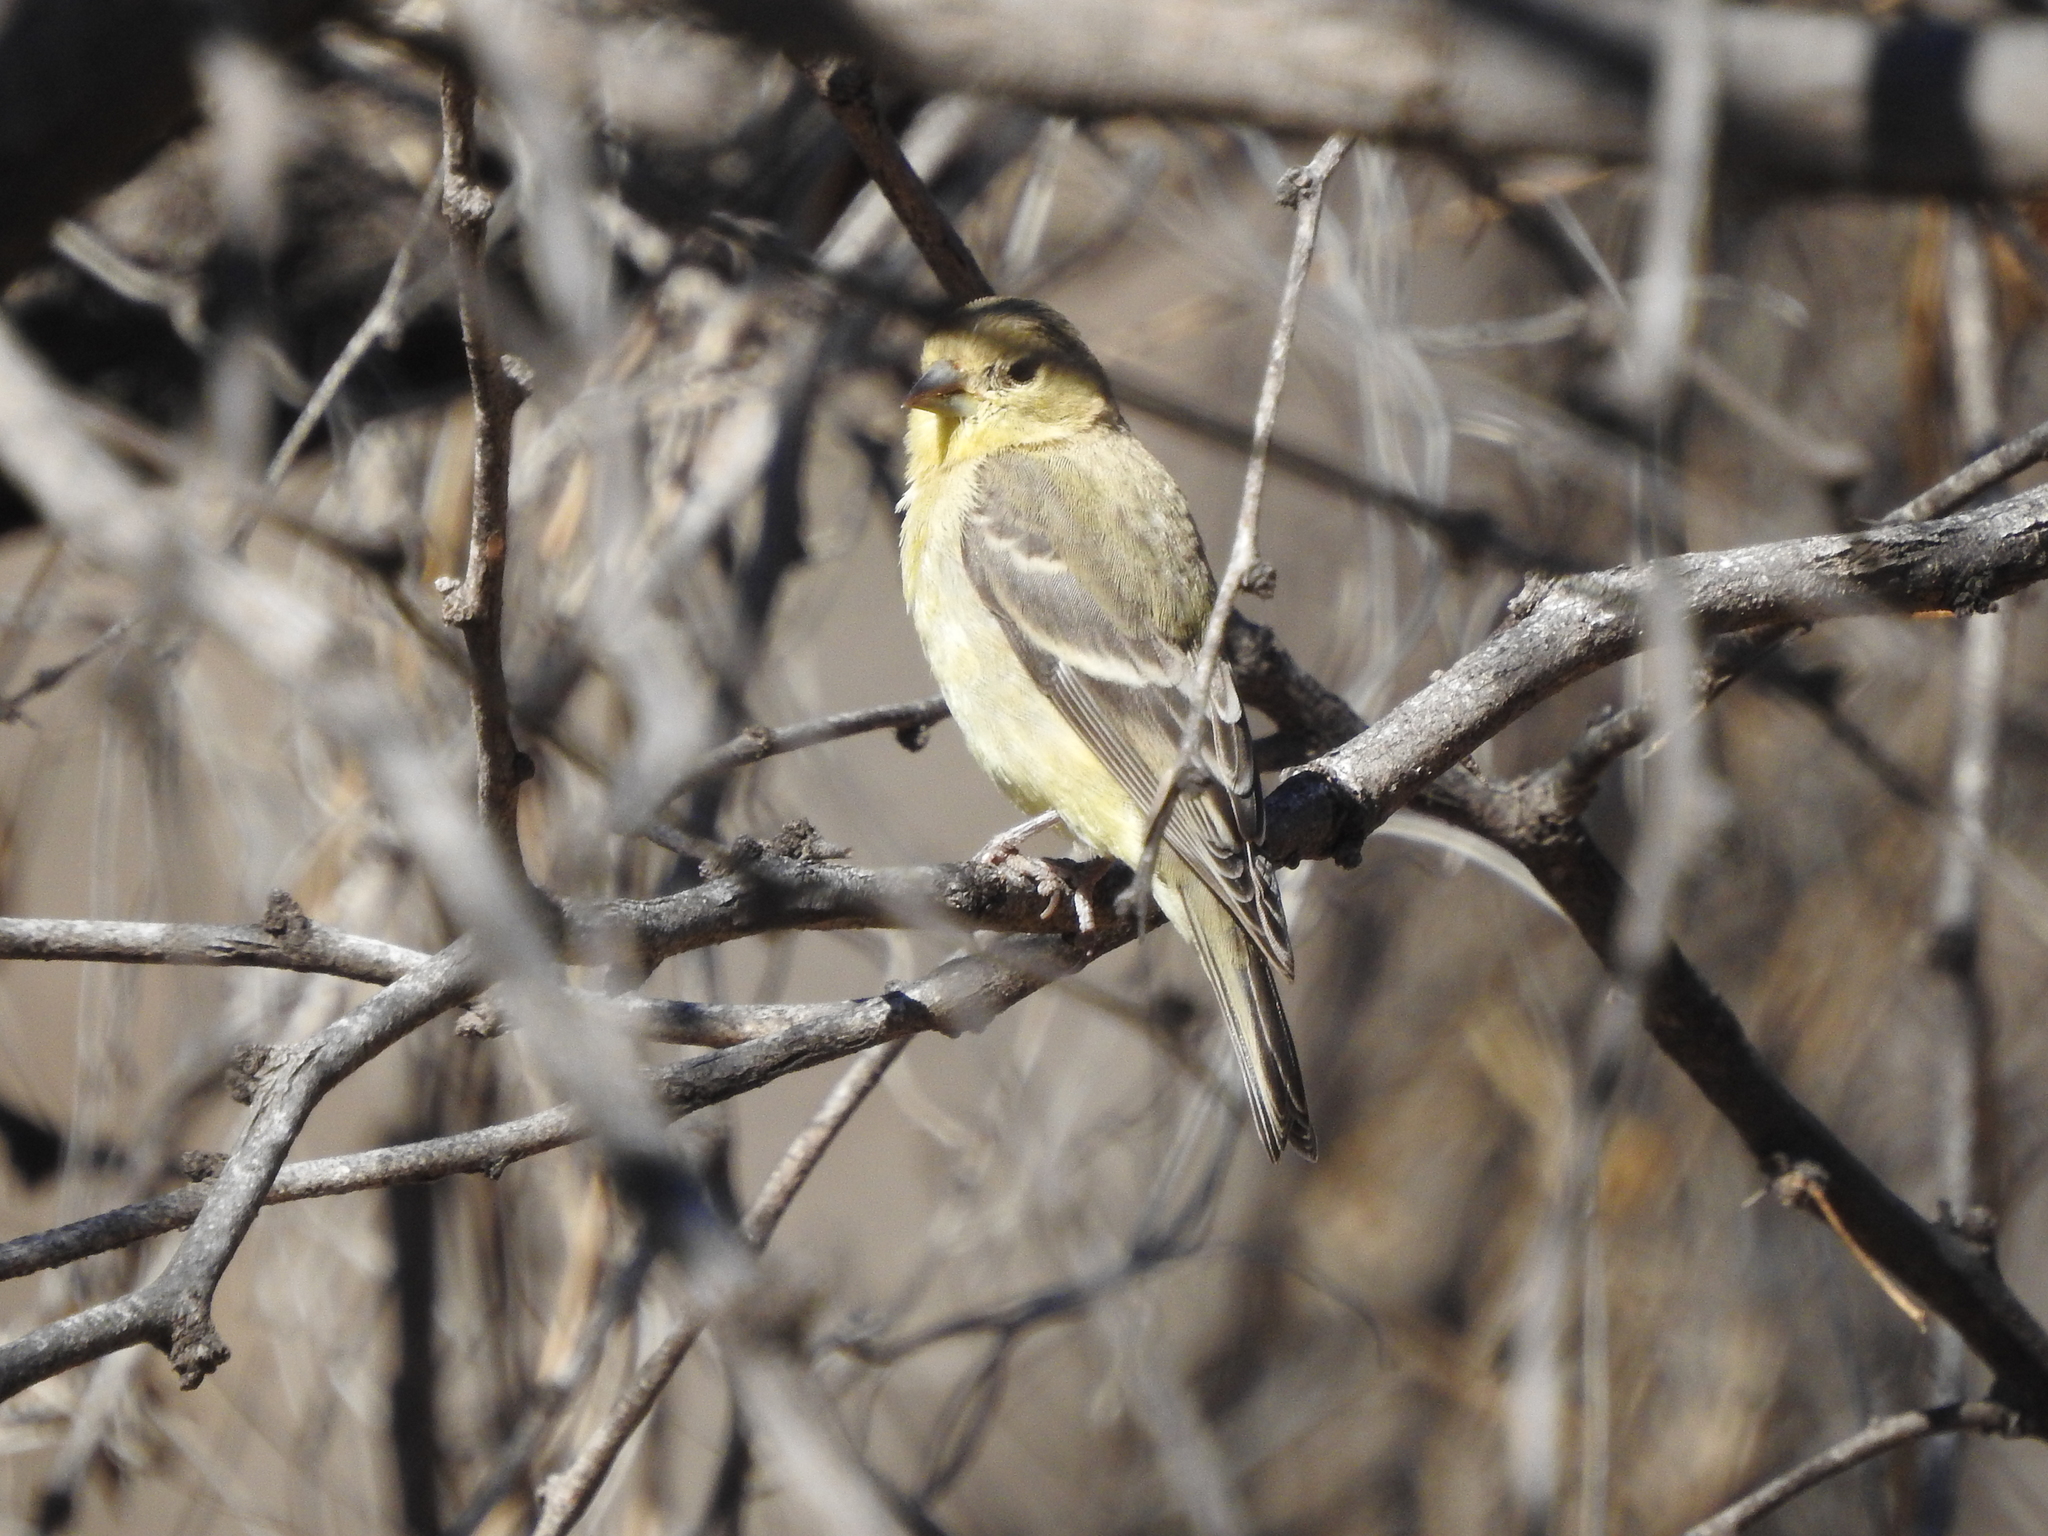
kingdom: Animalia
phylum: Chordata
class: Aves
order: Passeriformes
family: Fringillidae
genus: Spinus
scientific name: Spinus psaltria
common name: Lesser goldfinch
